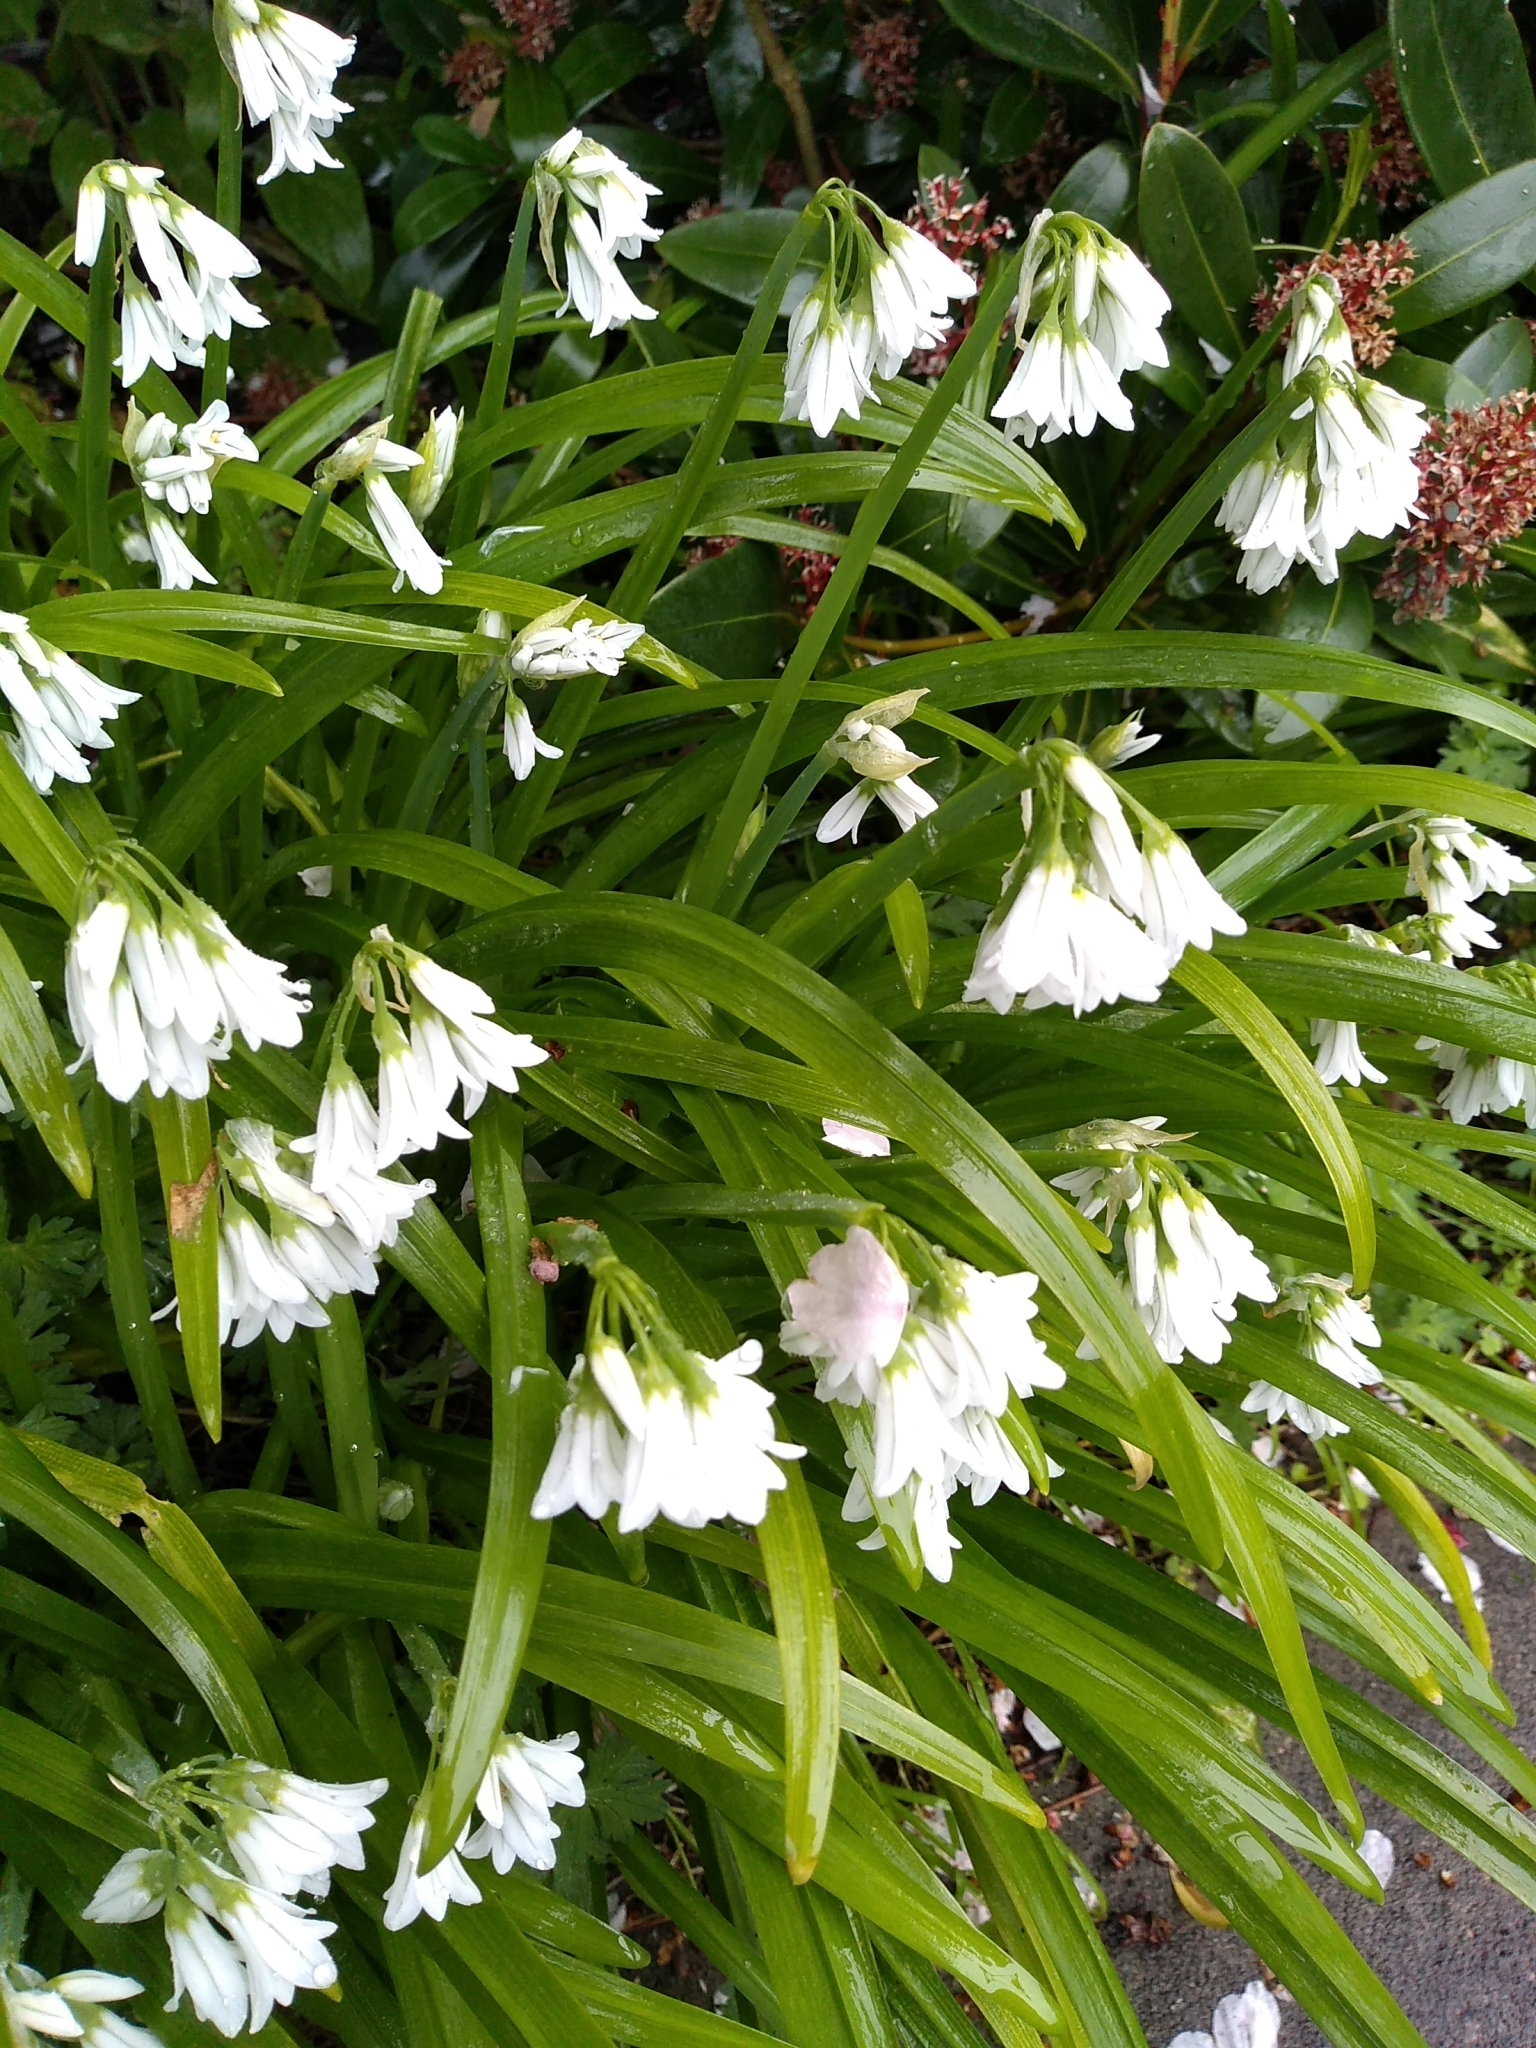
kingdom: Plantae
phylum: Tracheophyta
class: Liliopsida
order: Asparagales
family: Amaryllidaceae
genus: Allium
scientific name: Allium triquetrum
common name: Three-cornered garlic
